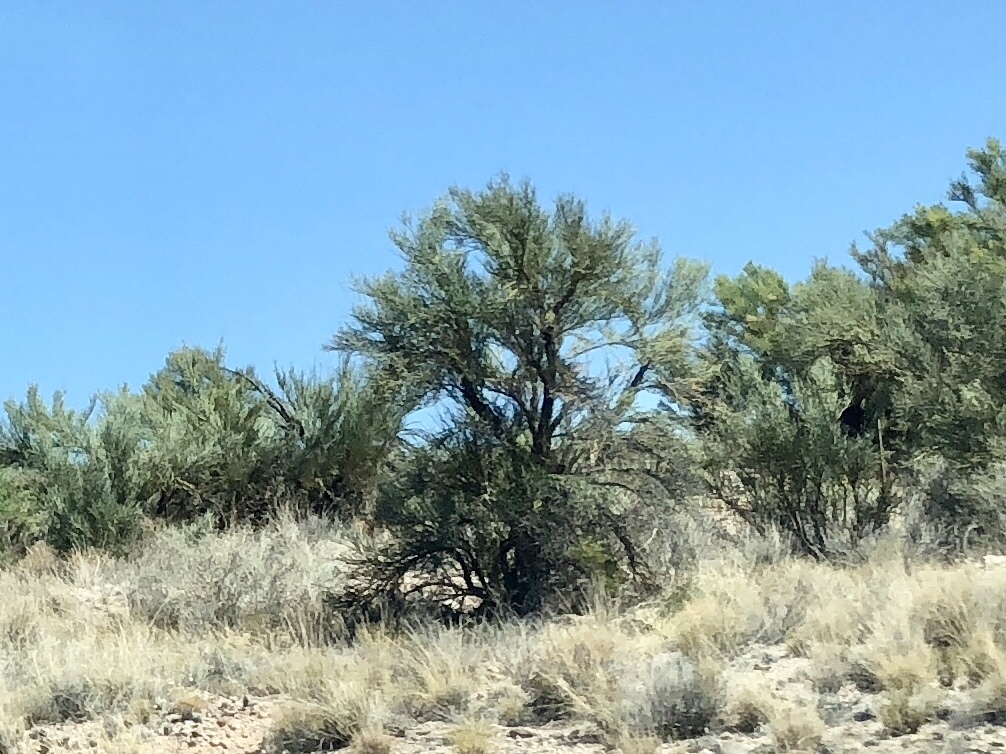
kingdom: Plantae
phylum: Tracheophyta
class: Magnoliopsida
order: Celastrales
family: Celastraceae
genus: Canotia
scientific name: Canotia holacantha
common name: Crucifixion thorns
